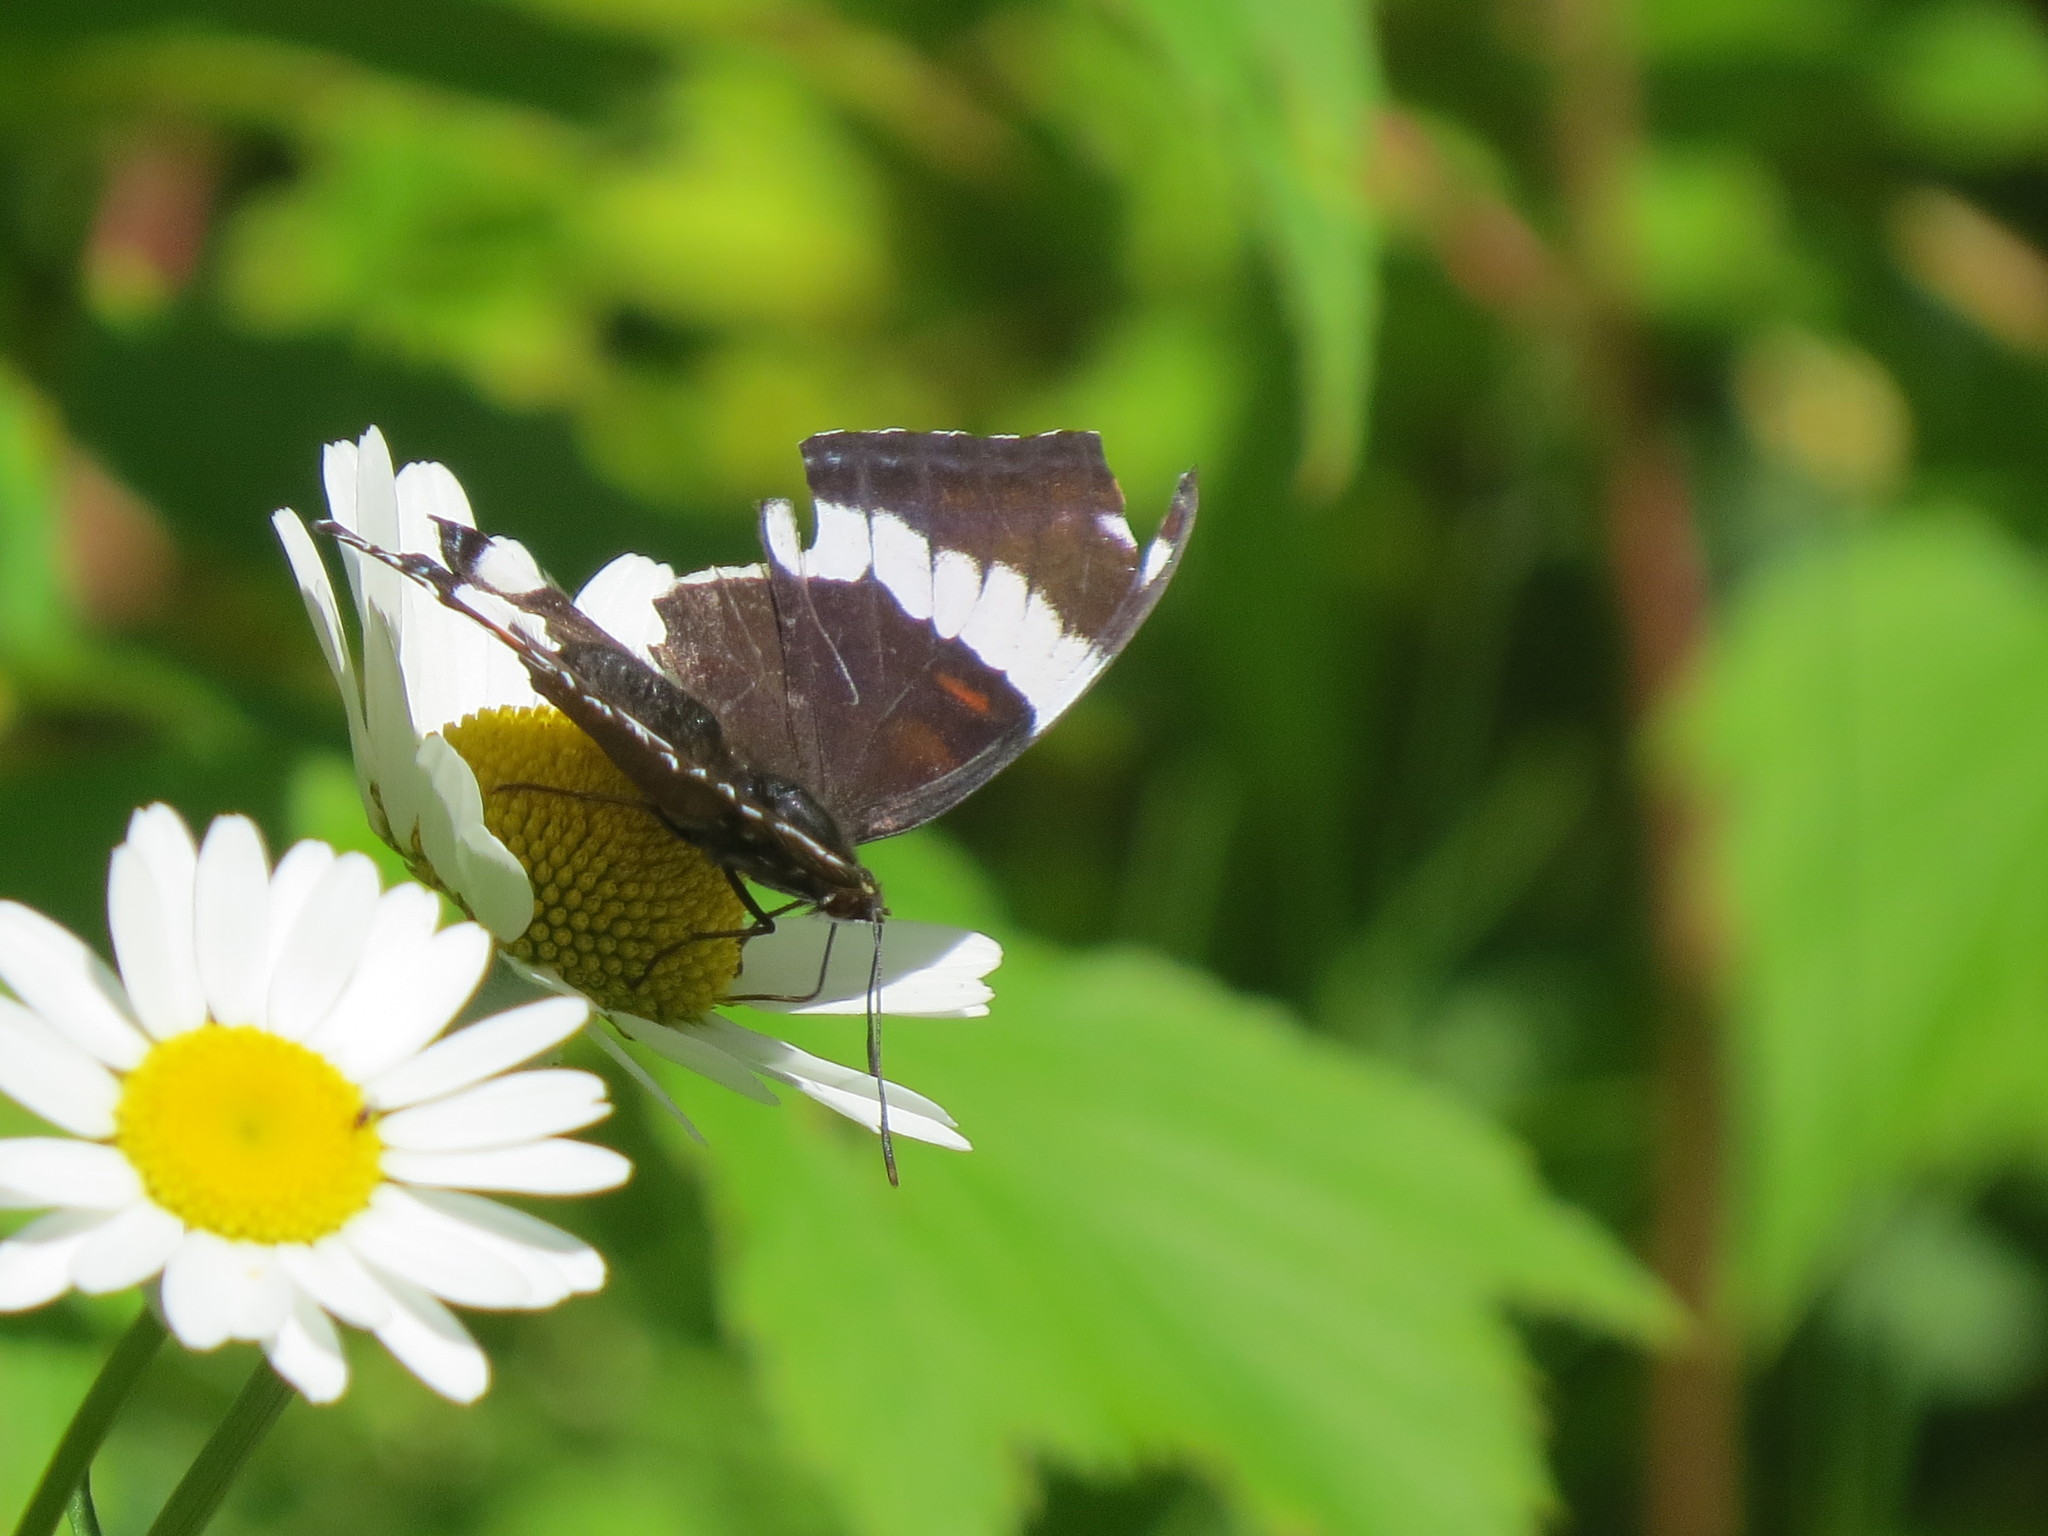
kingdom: Animalia
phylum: Arthropoda
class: Insecta
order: Lepidoptera
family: Nymphalidae
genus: Limenitis
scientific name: Limenitis arthemis
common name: Red-spotted admiral
